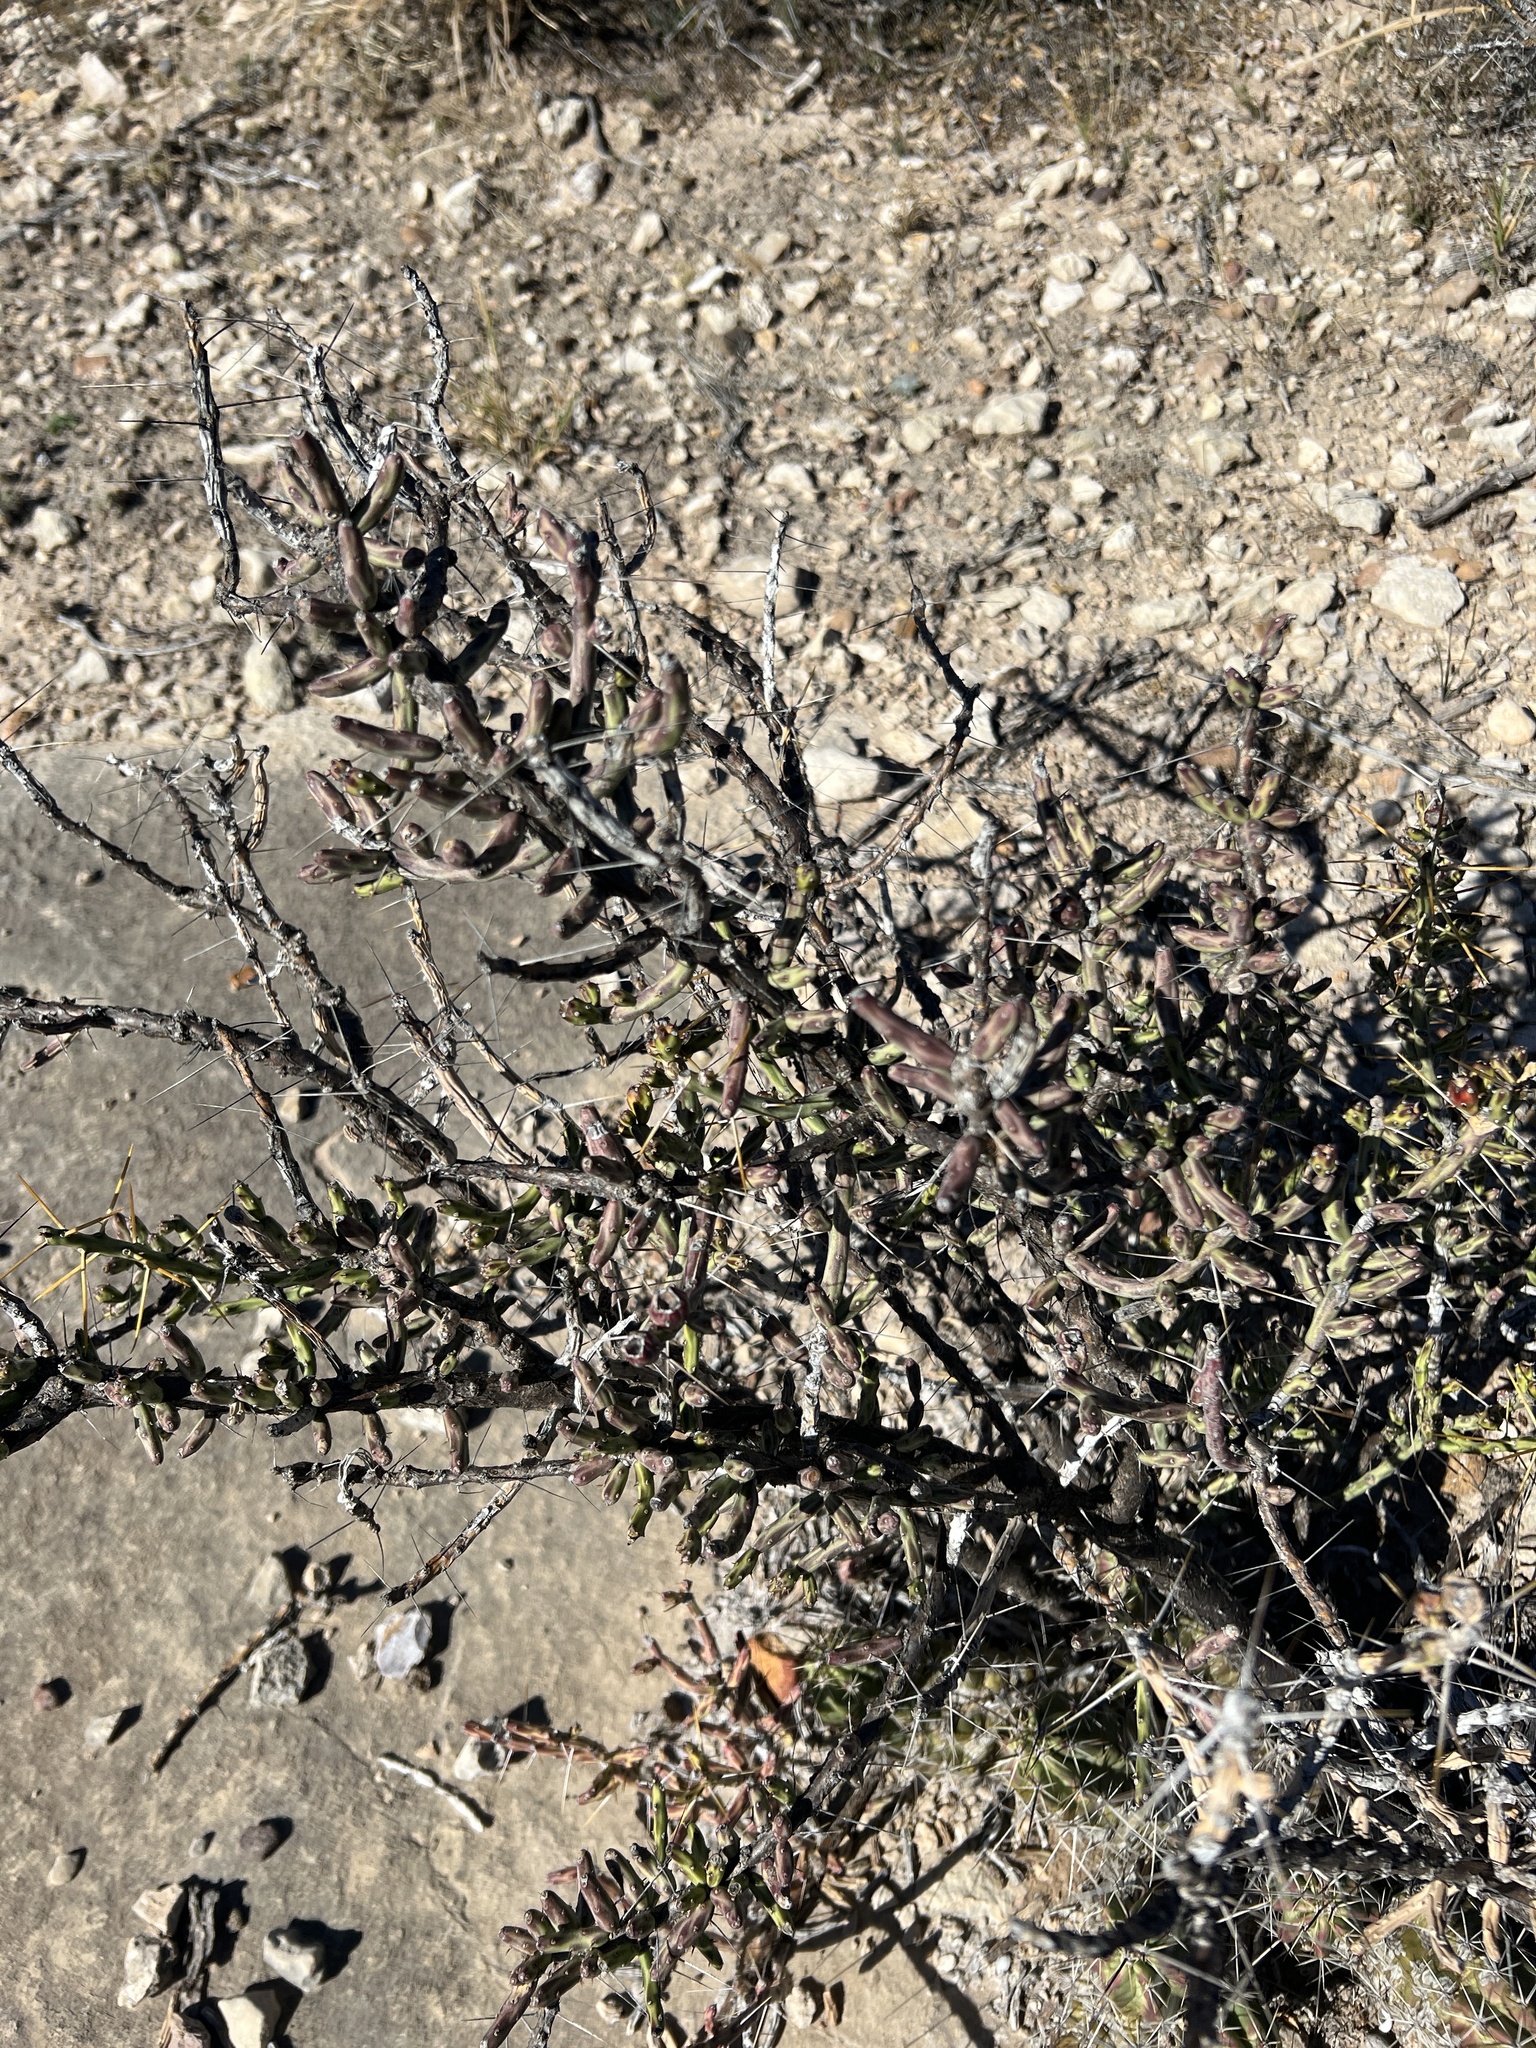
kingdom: Plantae
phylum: Tracheophyta
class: Magnoliopsida
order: Caryophyllales
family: Cactaceae
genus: Cylindropuntia
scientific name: Cylindropuntia leptocaulis
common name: Christmas cactus
